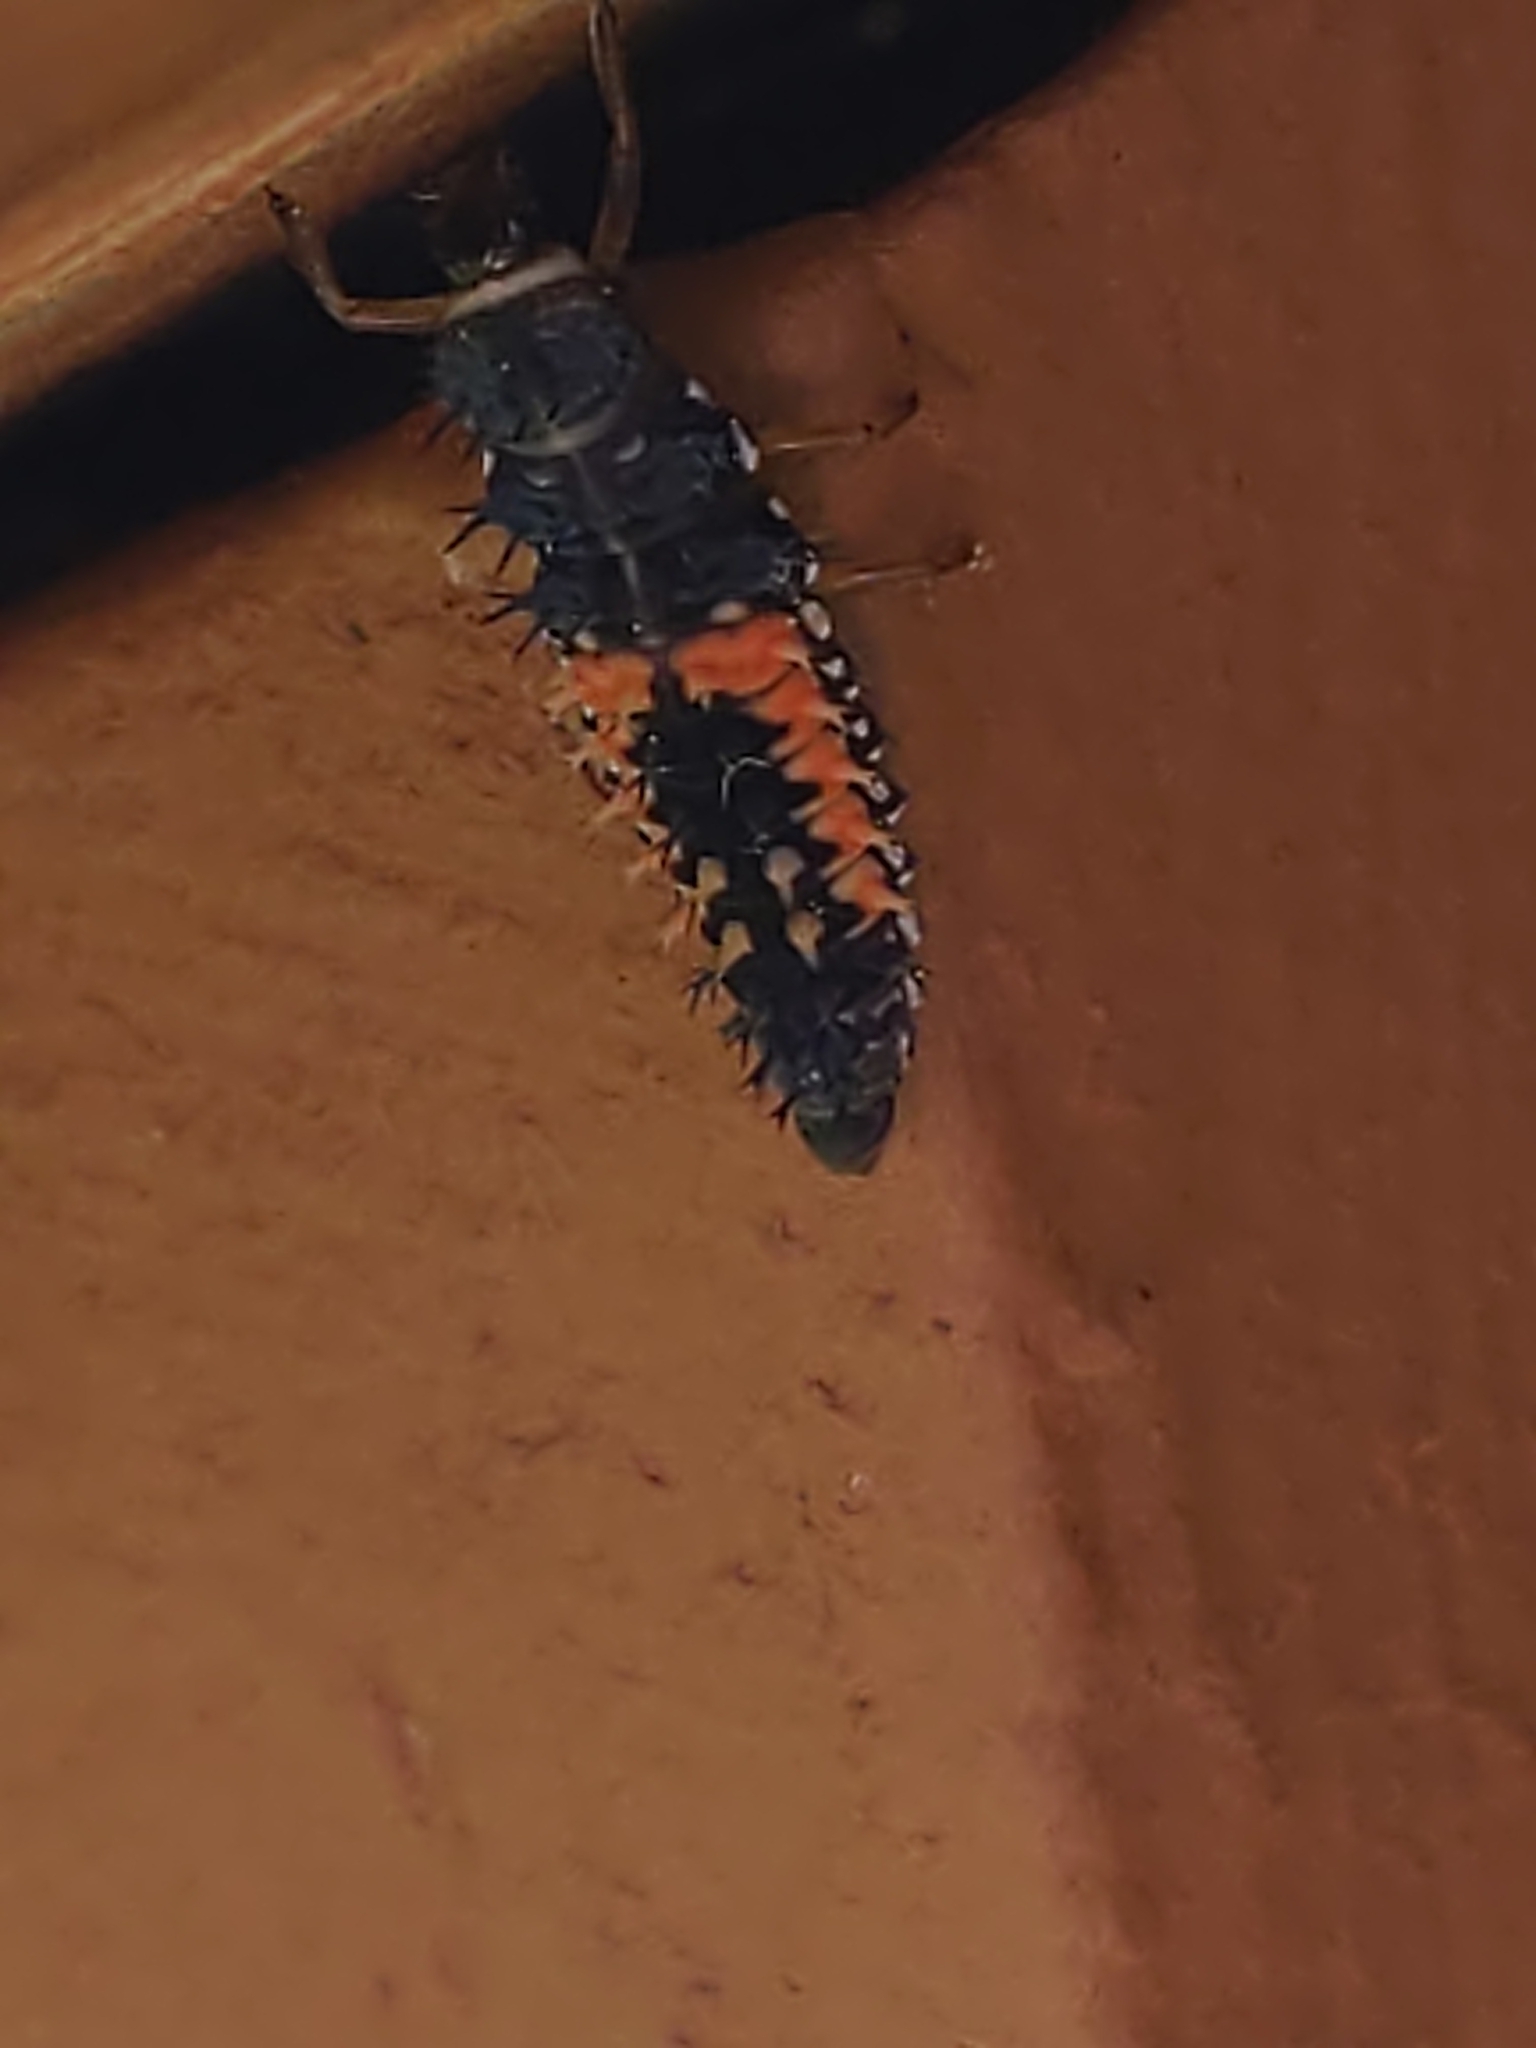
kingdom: Animalia
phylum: Arthropoda
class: Insecta
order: Coleoptera
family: Coccinellidae
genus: Harmonia
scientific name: Harmonia axyridis
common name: Harlequin ladybird
